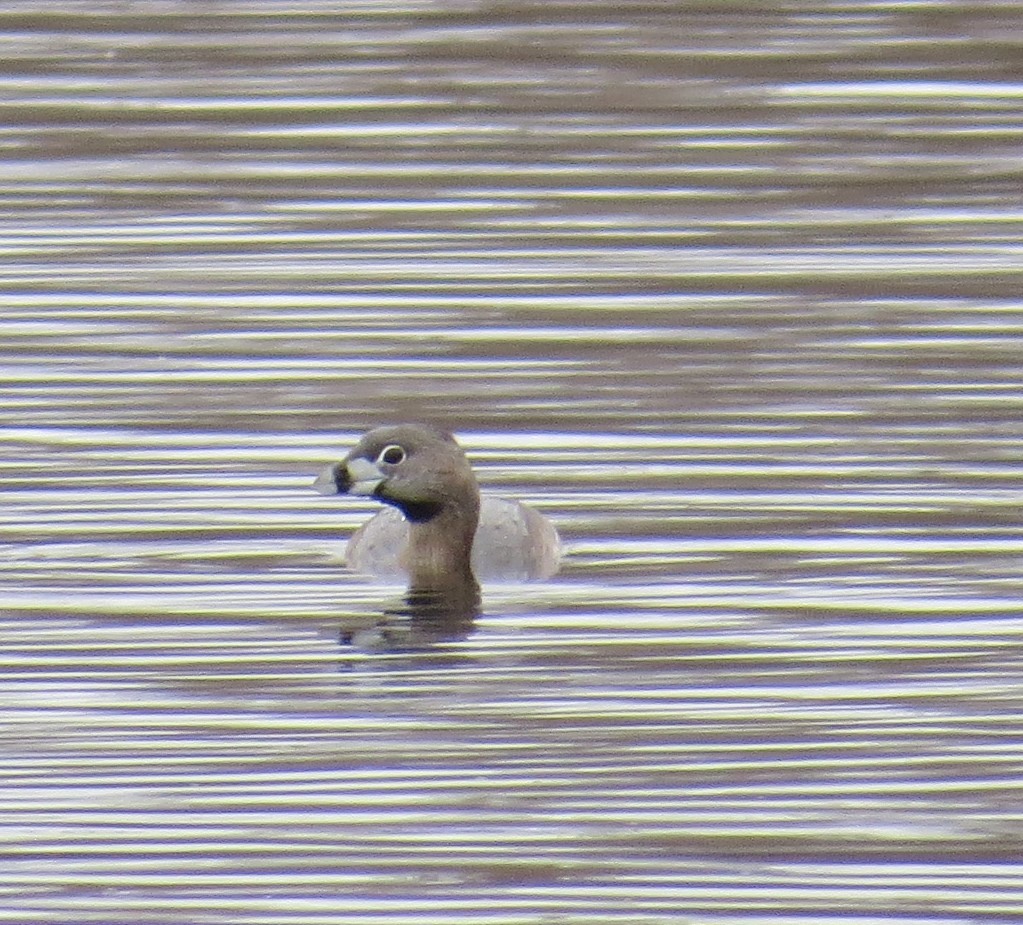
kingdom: Animalia
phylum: Chordata
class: Aves
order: Podicipediformes
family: Podicipedidae
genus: Podilymbus
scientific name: Podilymbus podiceps
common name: Pied-billed grebe
